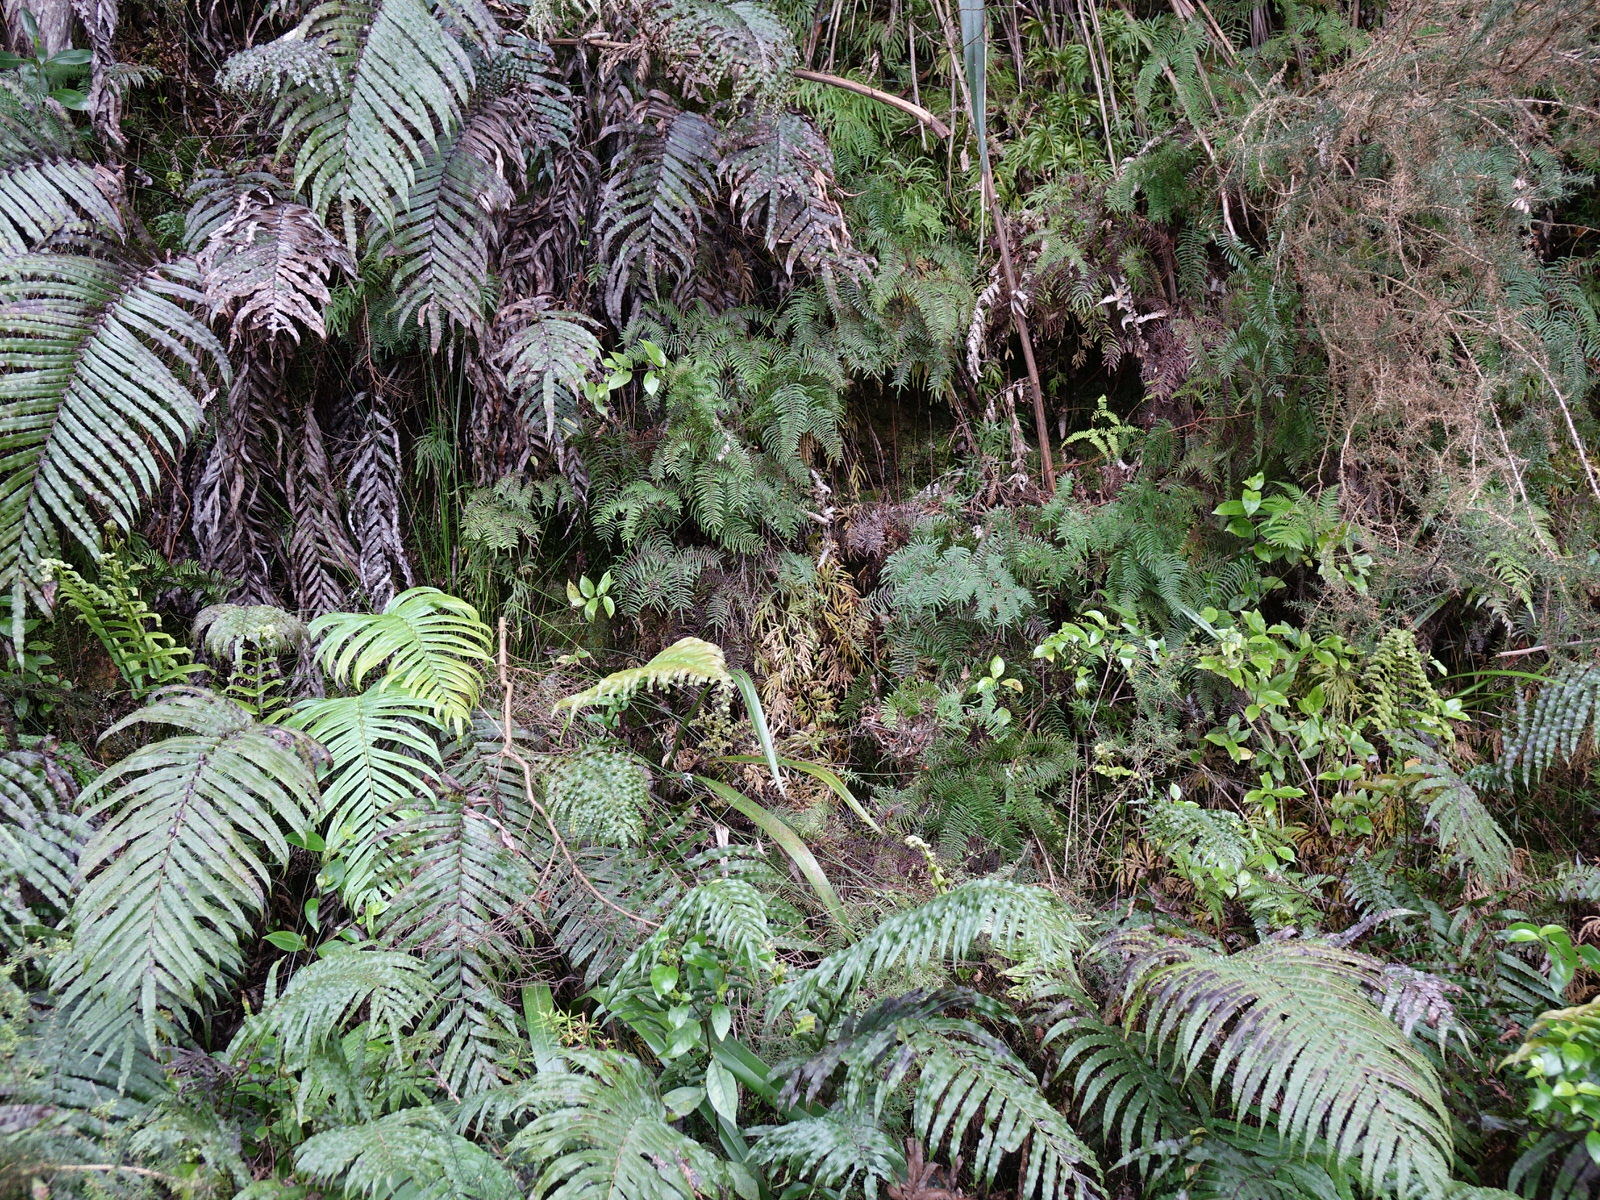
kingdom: Plantae
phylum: Tracheophyta
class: Polypodiopsida
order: Gleicheniales
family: Gleicheniaceae
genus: Gleichenia
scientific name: Gleichenia microphylla
